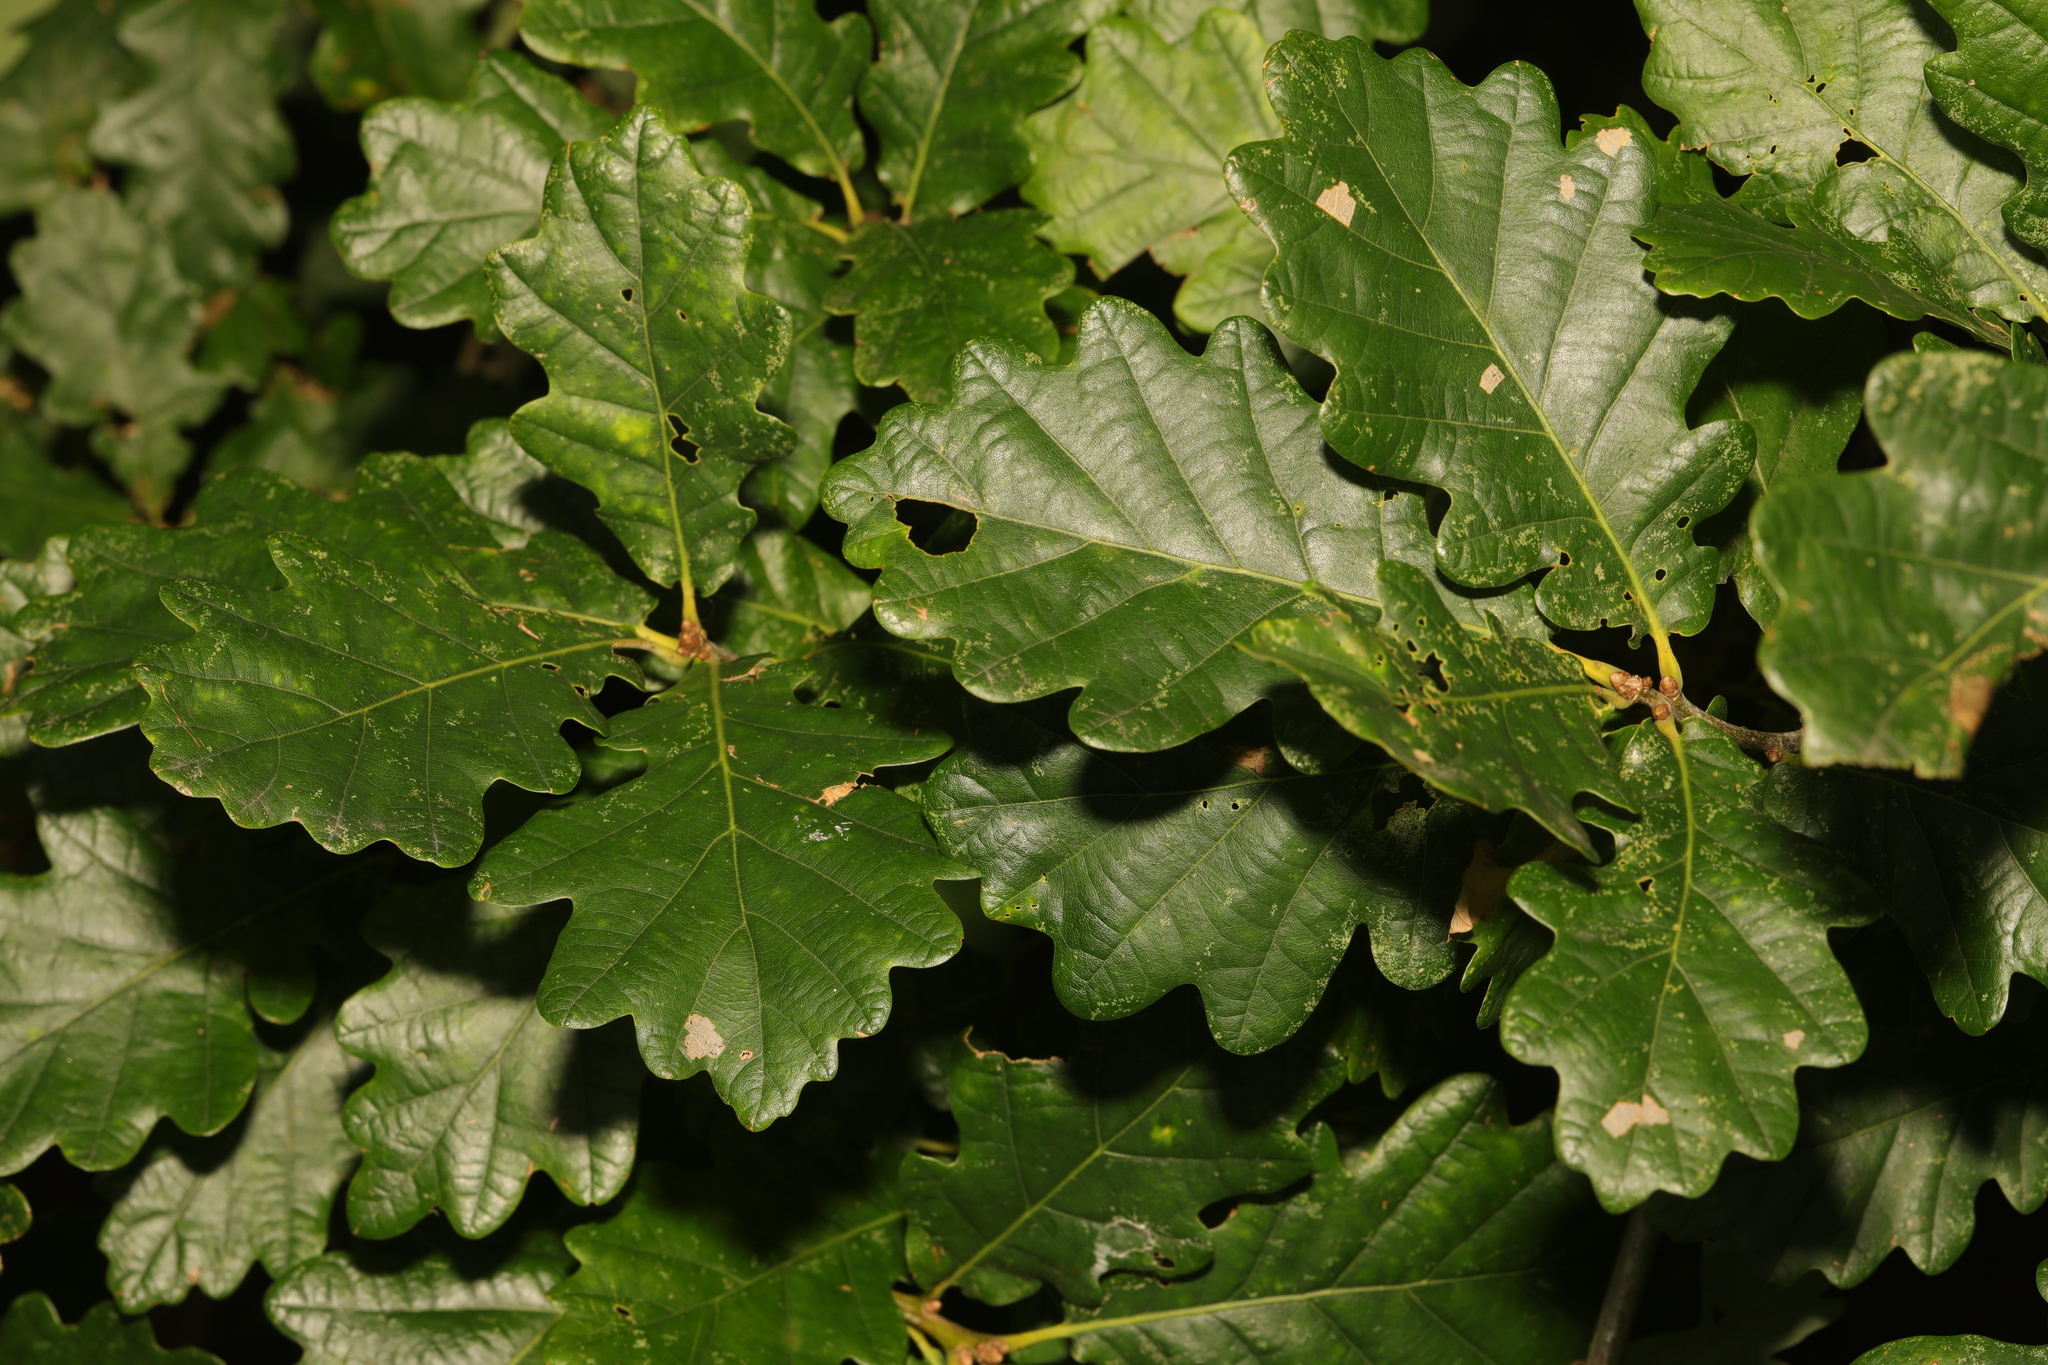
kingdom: Plantae
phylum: Tracheophyta
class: Magnoliopsida
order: Fagales
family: Fagaceae
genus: Quercus
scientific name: Quercus rosacea
